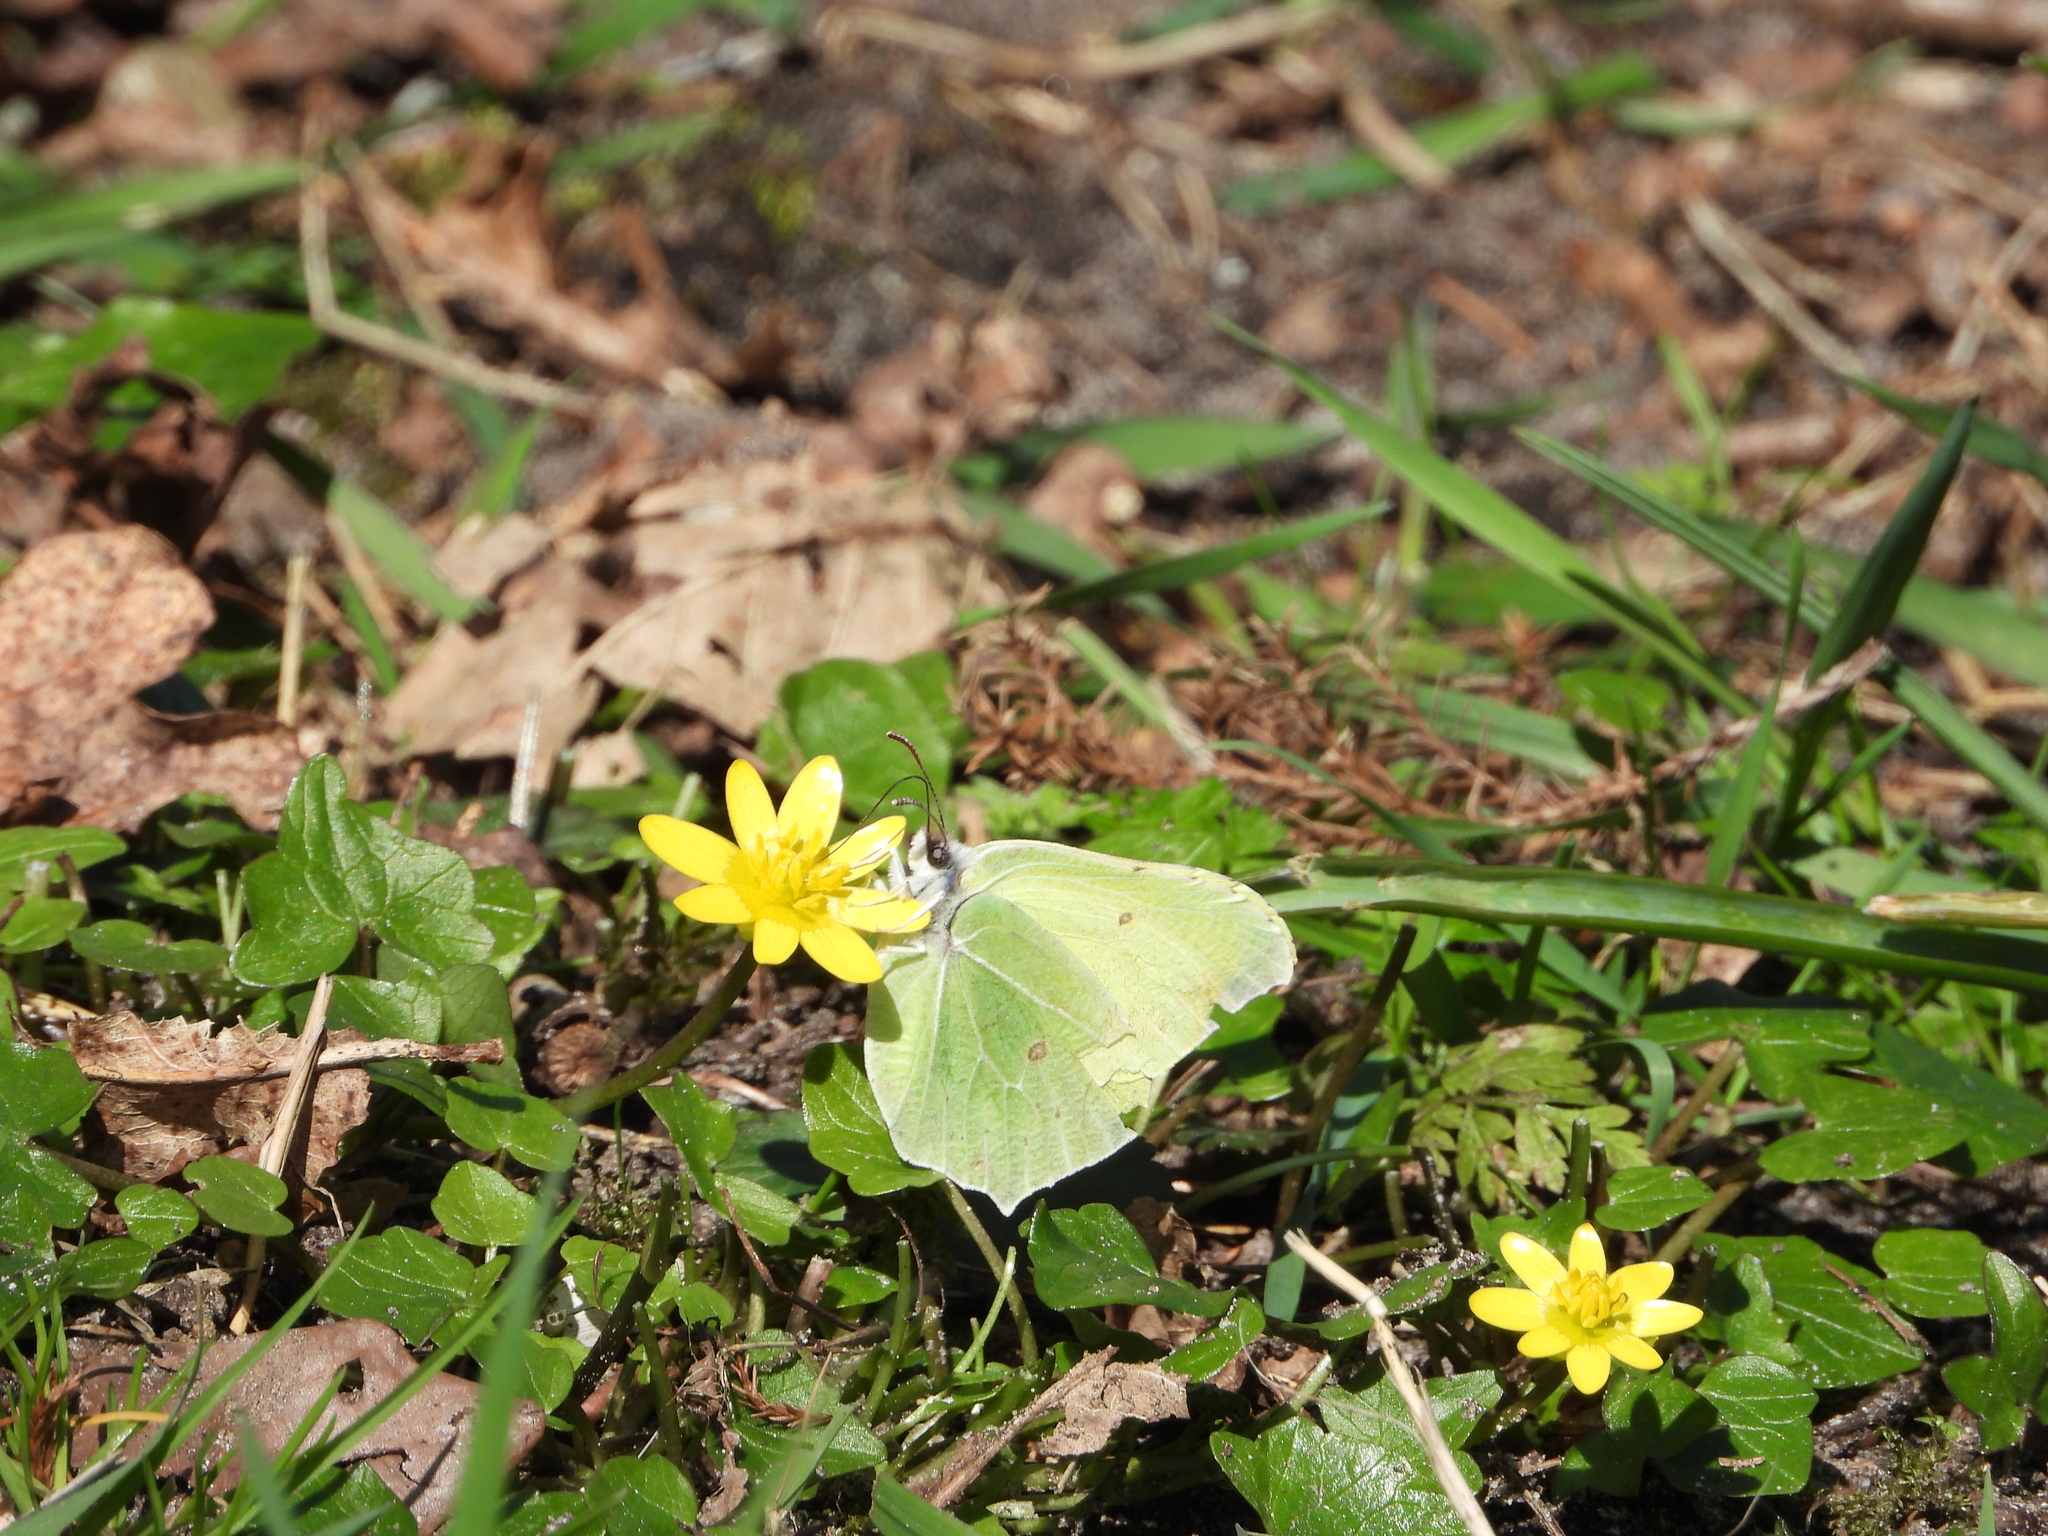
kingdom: Animalia
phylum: Arthropoda
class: Insecta
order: Lepidoptera
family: Pieridae
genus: Gonepteryx
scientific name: Gonepteryx rhamni
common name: Brimstone
